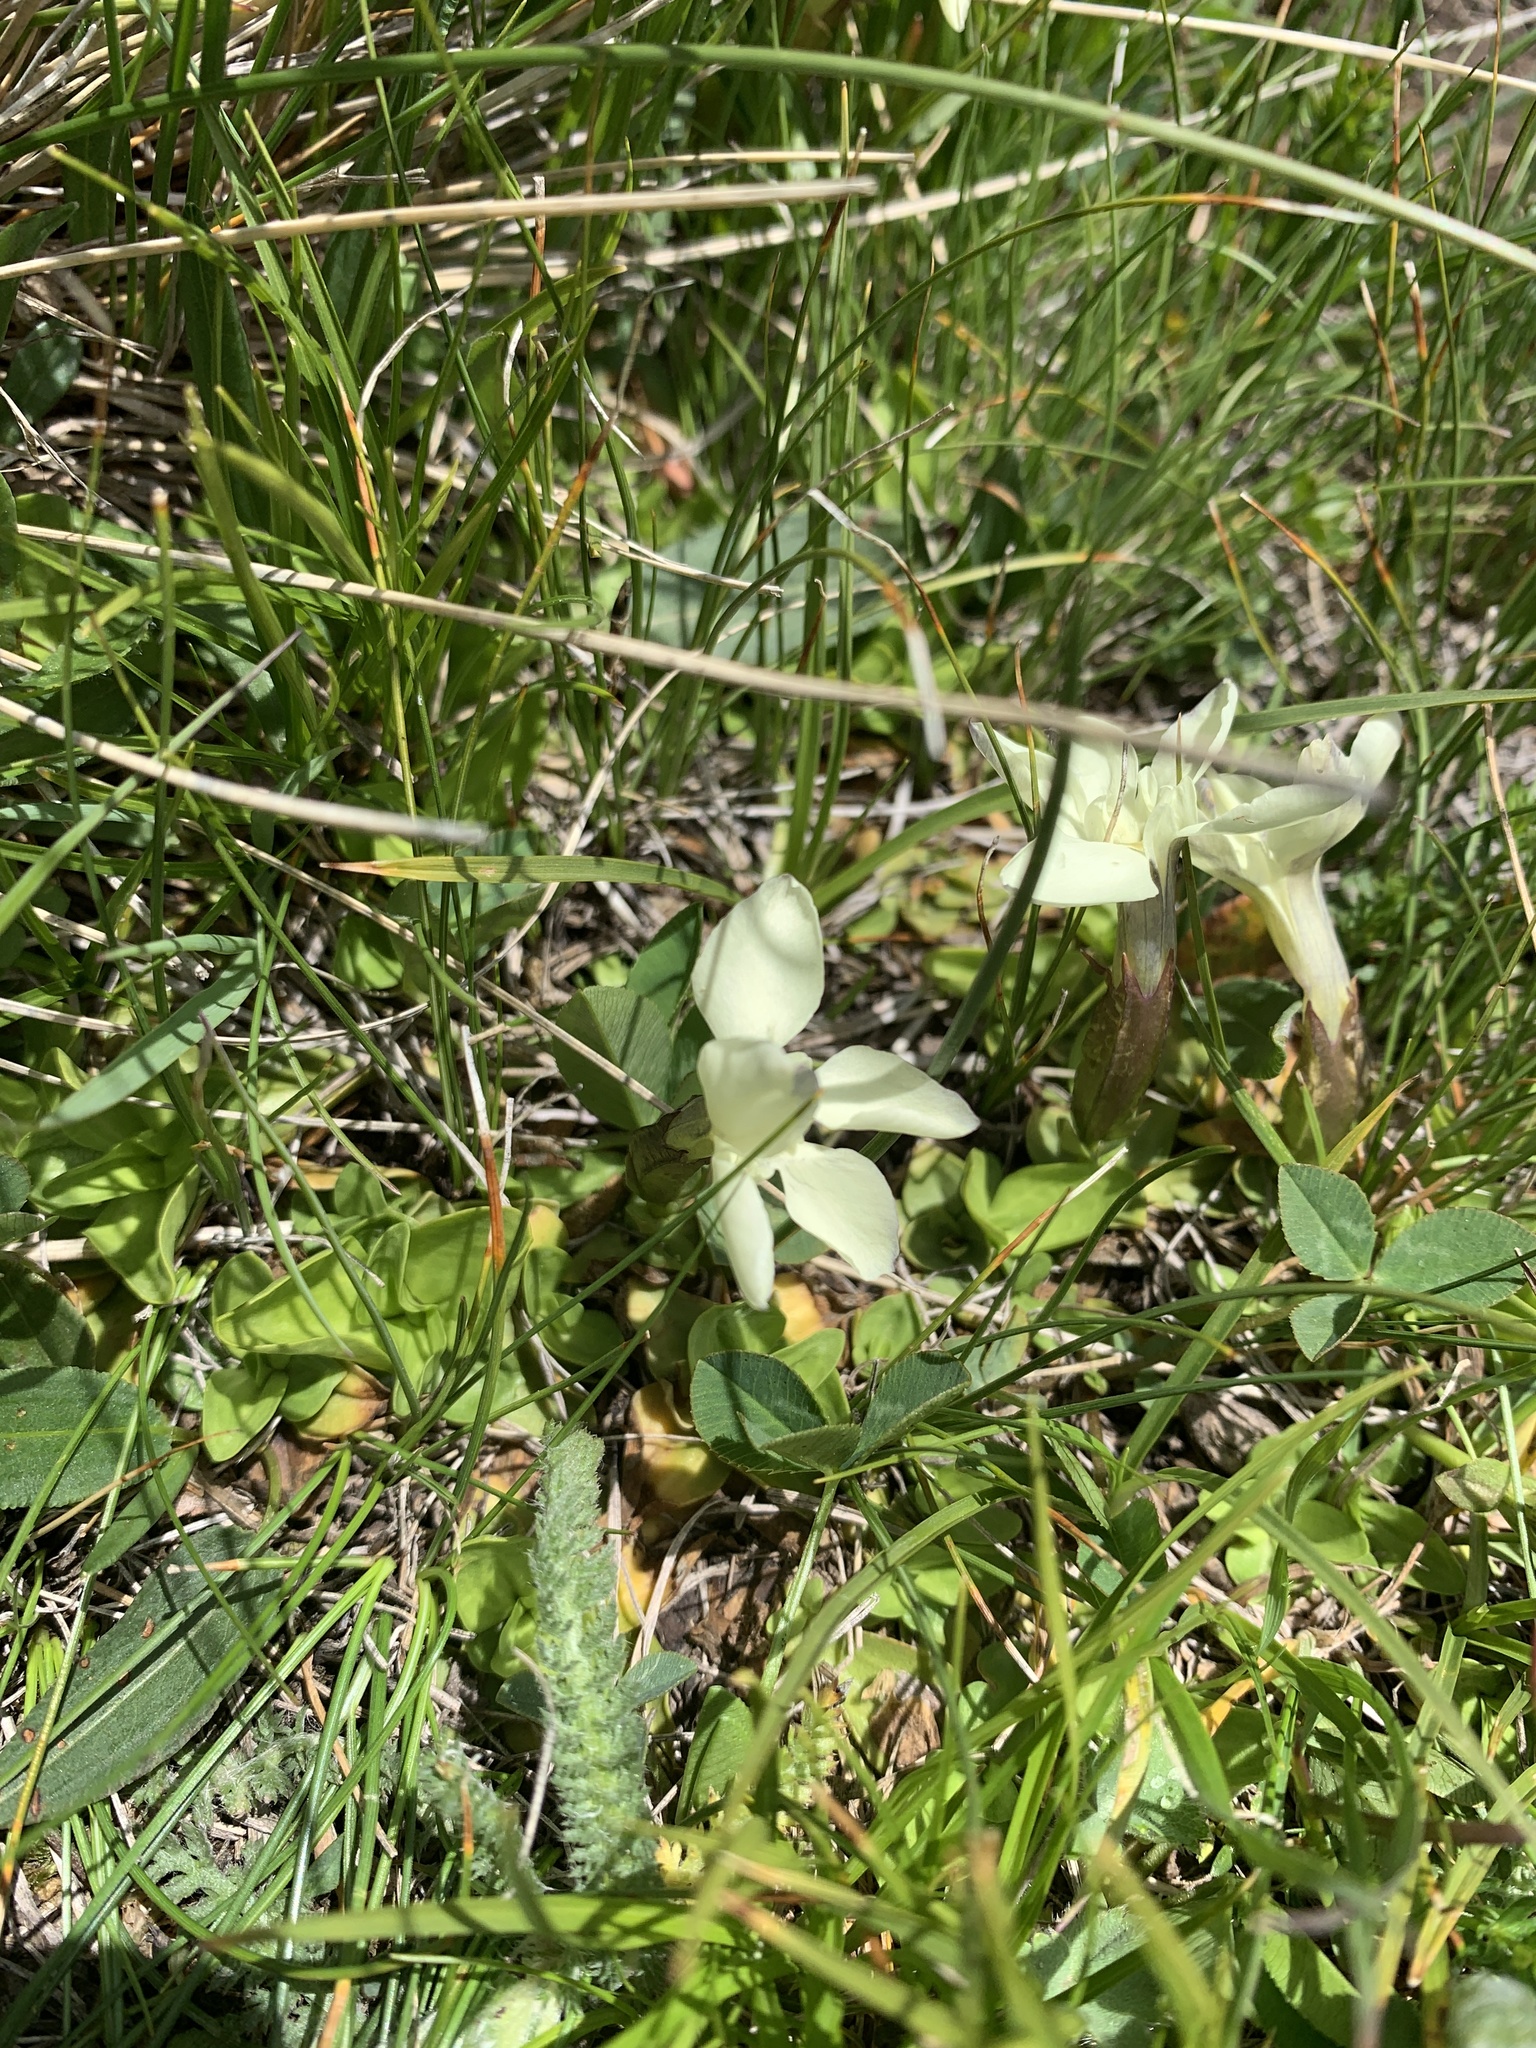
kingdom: Plantae
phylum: Tracheophyta
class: Magnoliopsida
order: Gentianales
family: Gentianaceae
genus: Gentiana
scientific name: Gentiana verna
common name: Spring gentian
